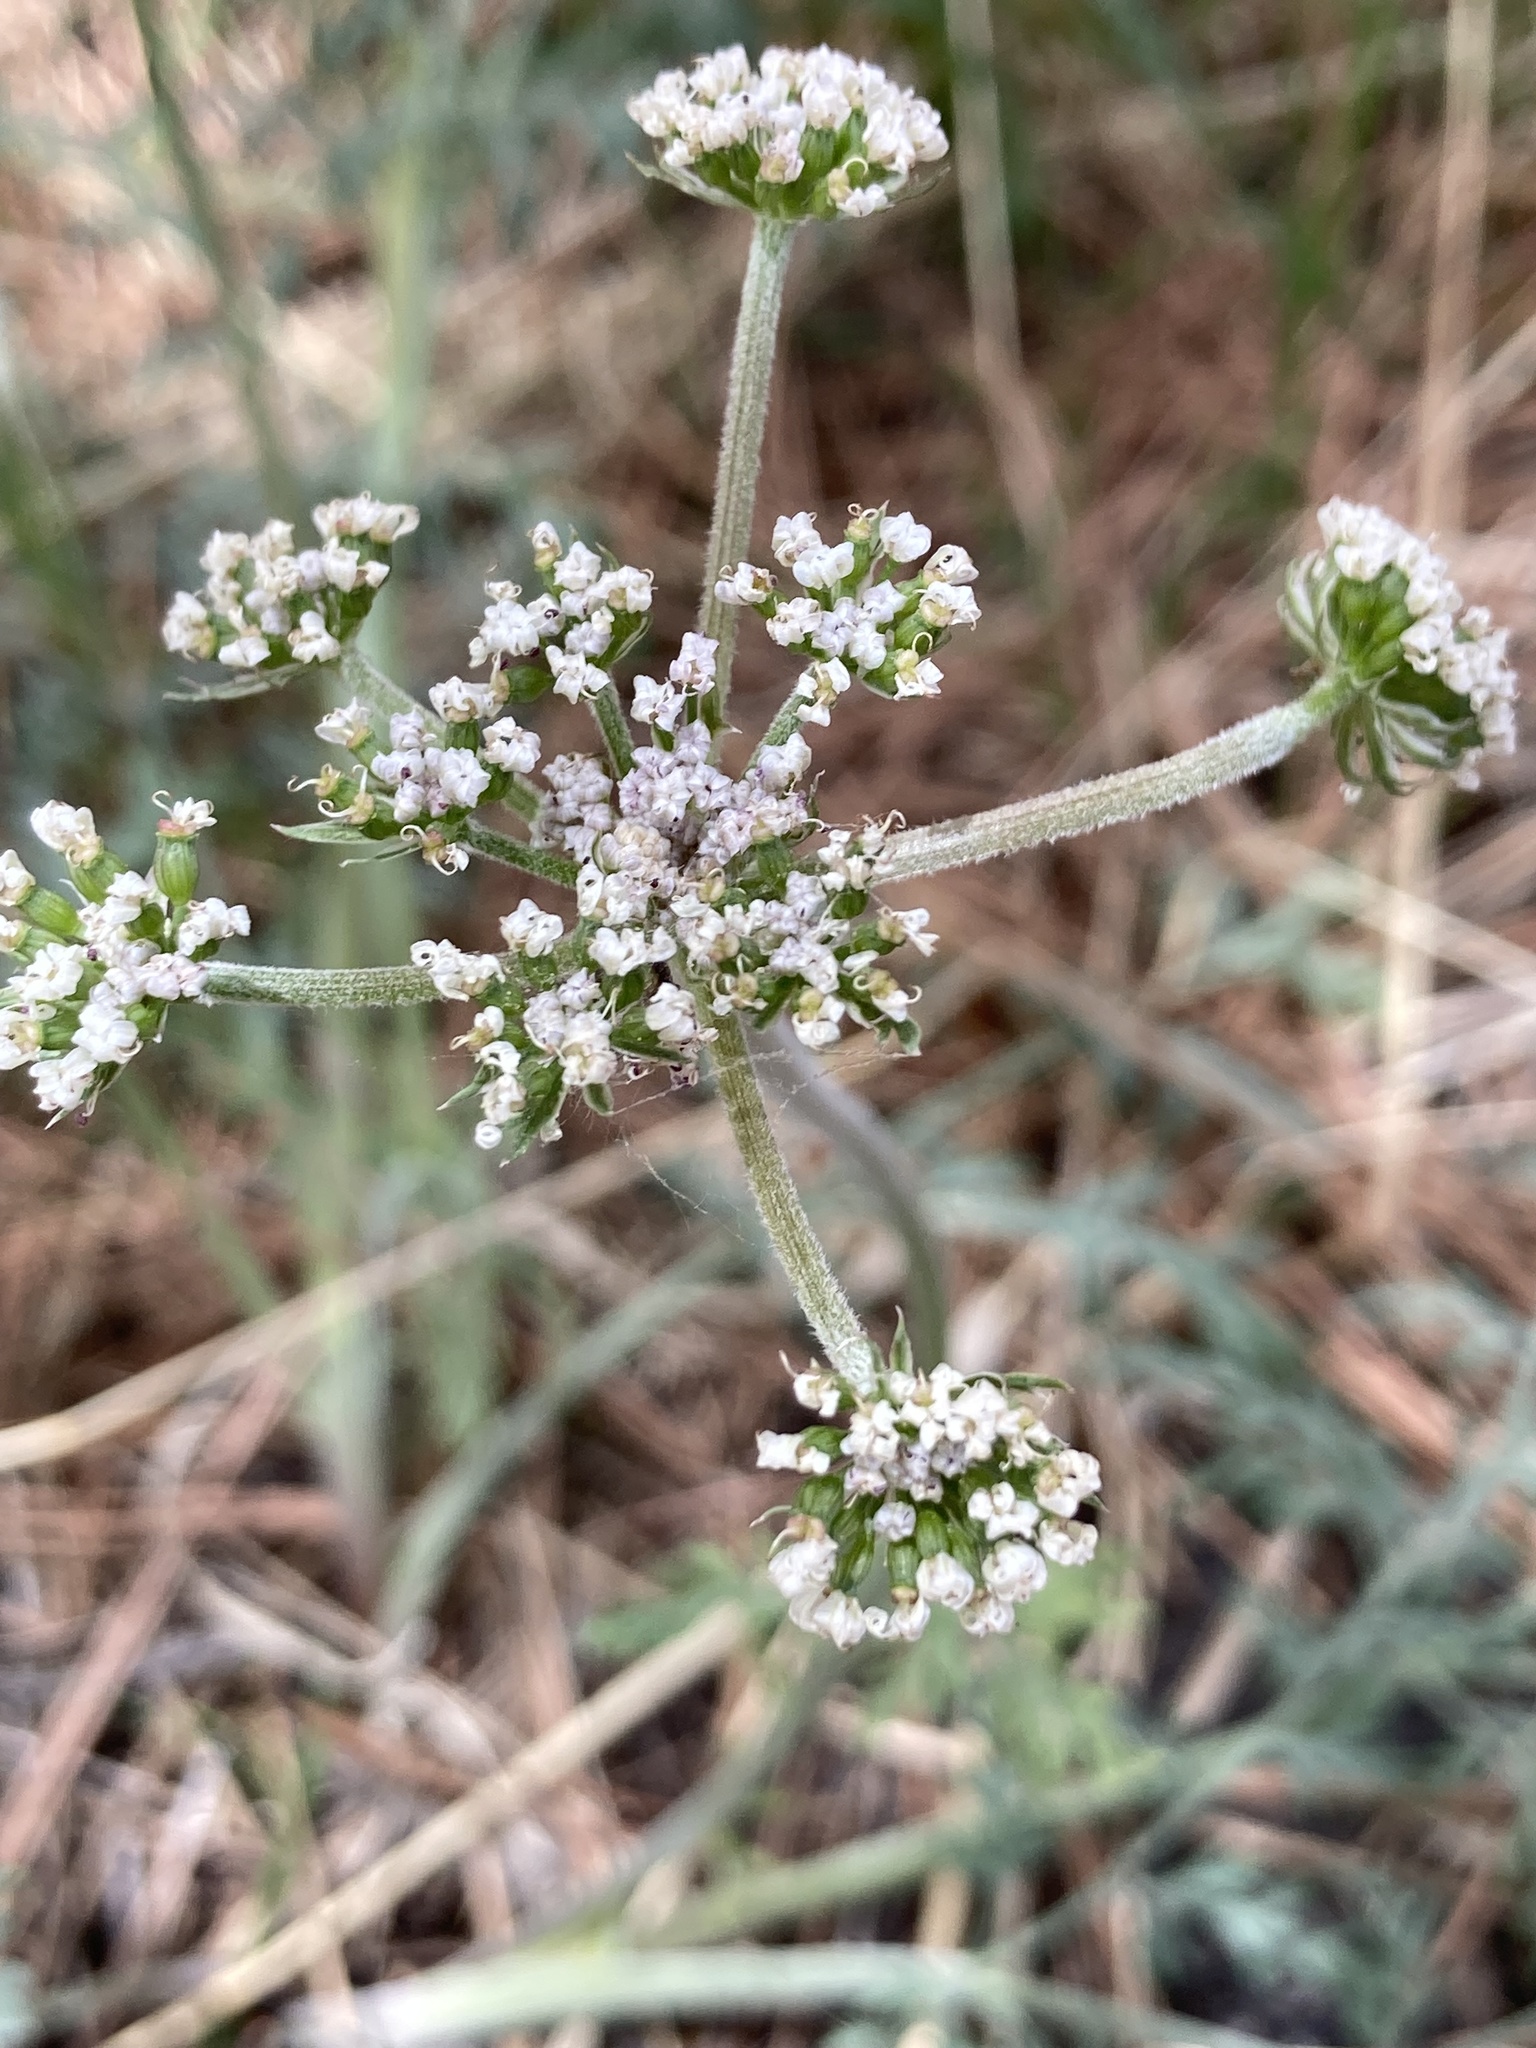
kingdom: Plantae
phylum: Tracheophyta
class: Magnoliopsida
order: Apiales
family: Apiaceae
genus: Lomatium
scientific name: Lomatium orientale
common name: Eastern cous
